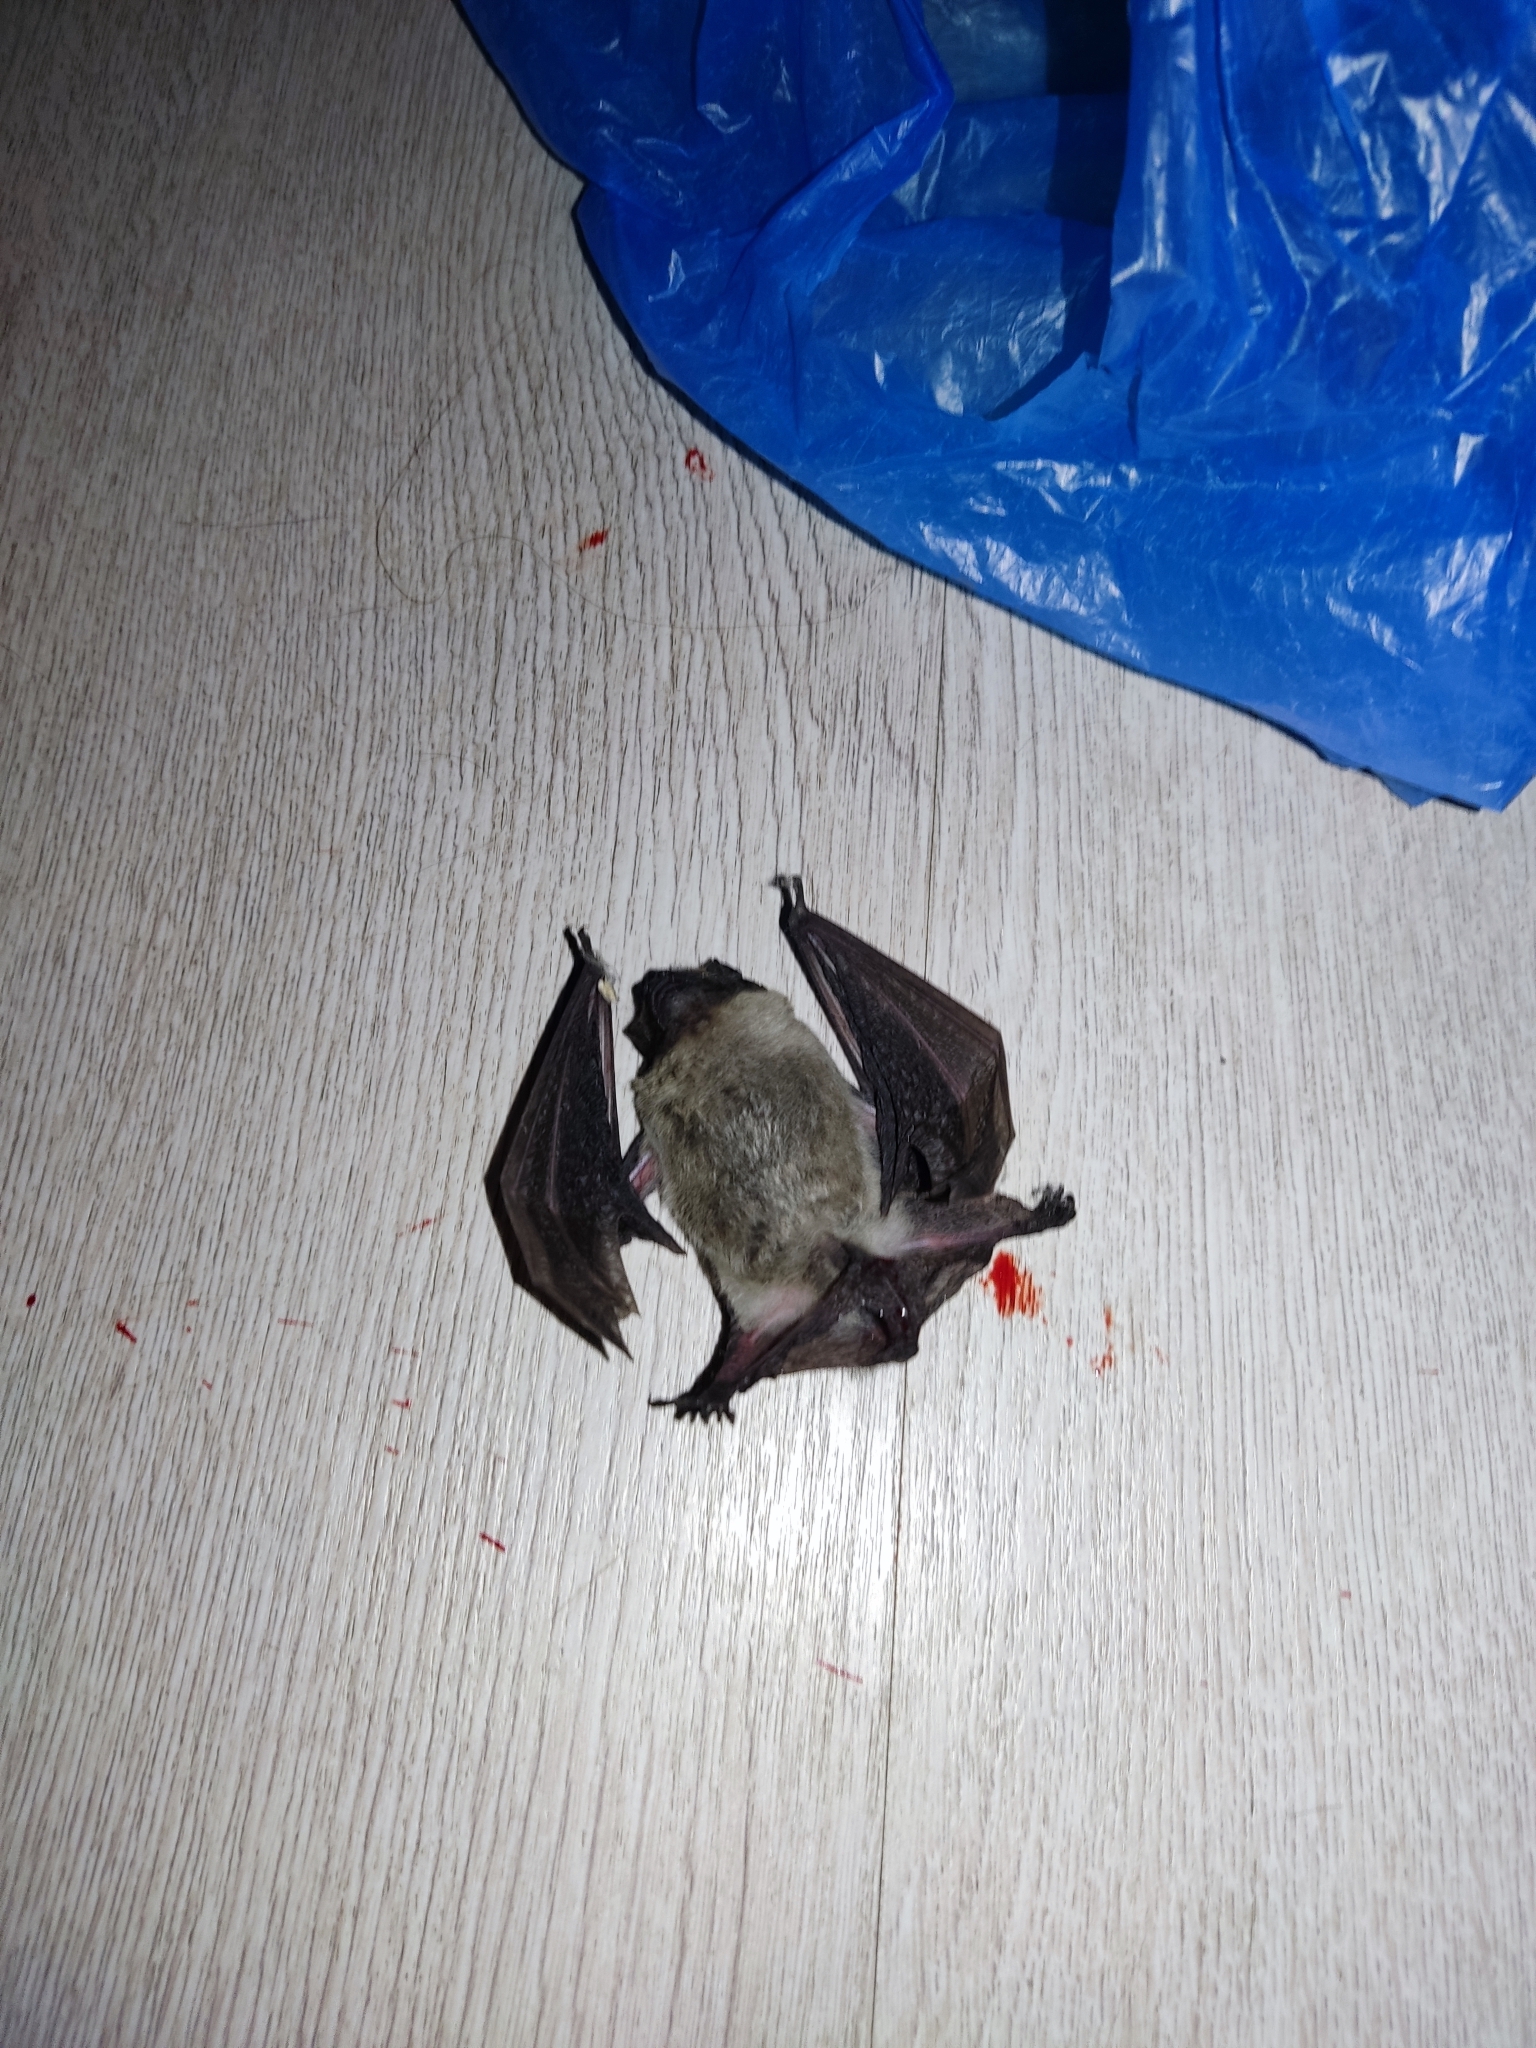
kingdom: Animalia
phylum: Chordata
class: Mammalia
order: Chiroptera
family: Vespertilionidae
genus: Vespertilio
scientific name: Vespertilio murinus
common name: Particolored bat
